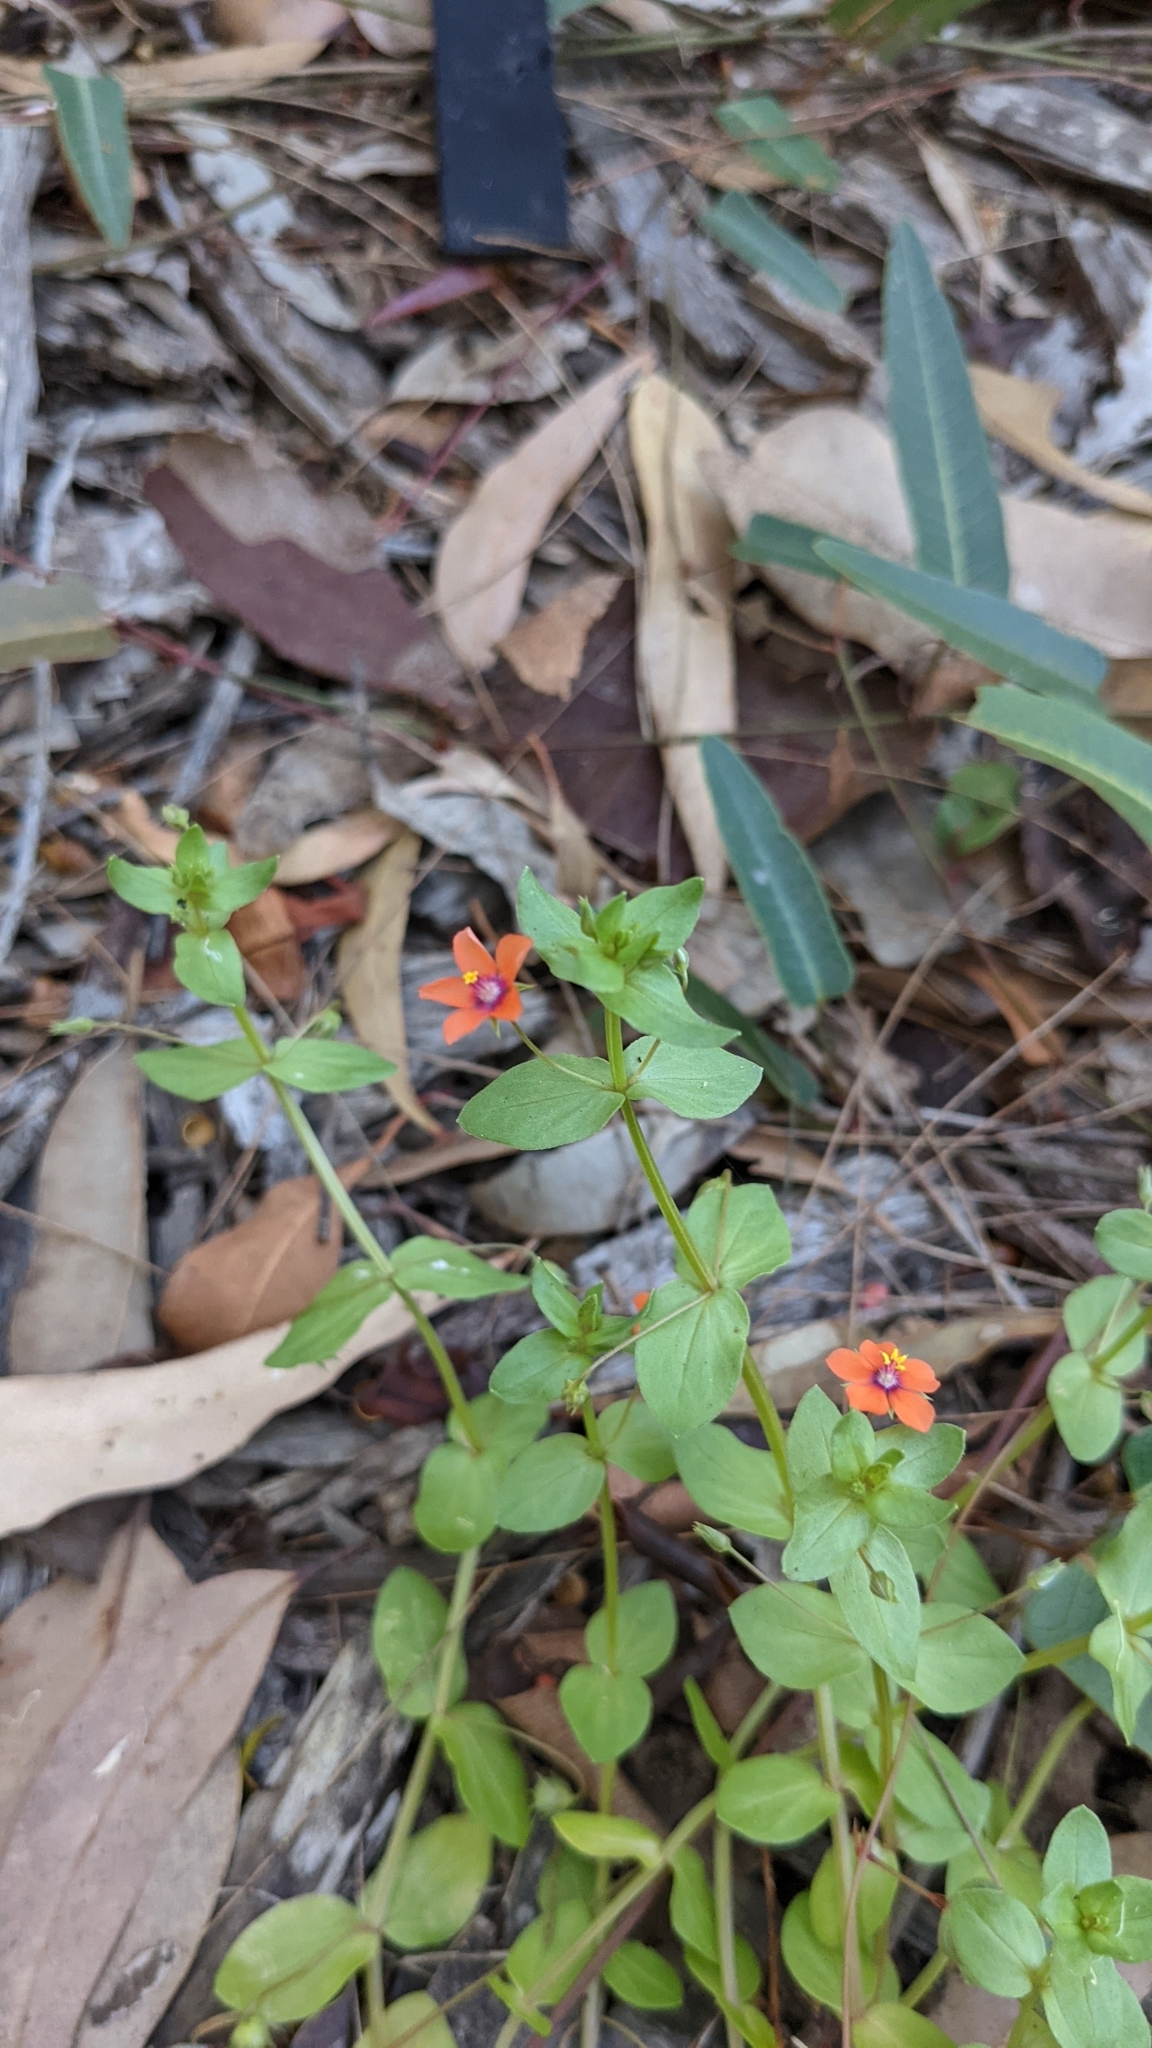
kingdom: Plantae
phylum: Tracheophyta
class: Magnoliopsida
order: Ericales
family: Primulaceae
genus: Lysimachia
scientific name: Lysimachia arvensis
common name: Scarlet pimpernel
